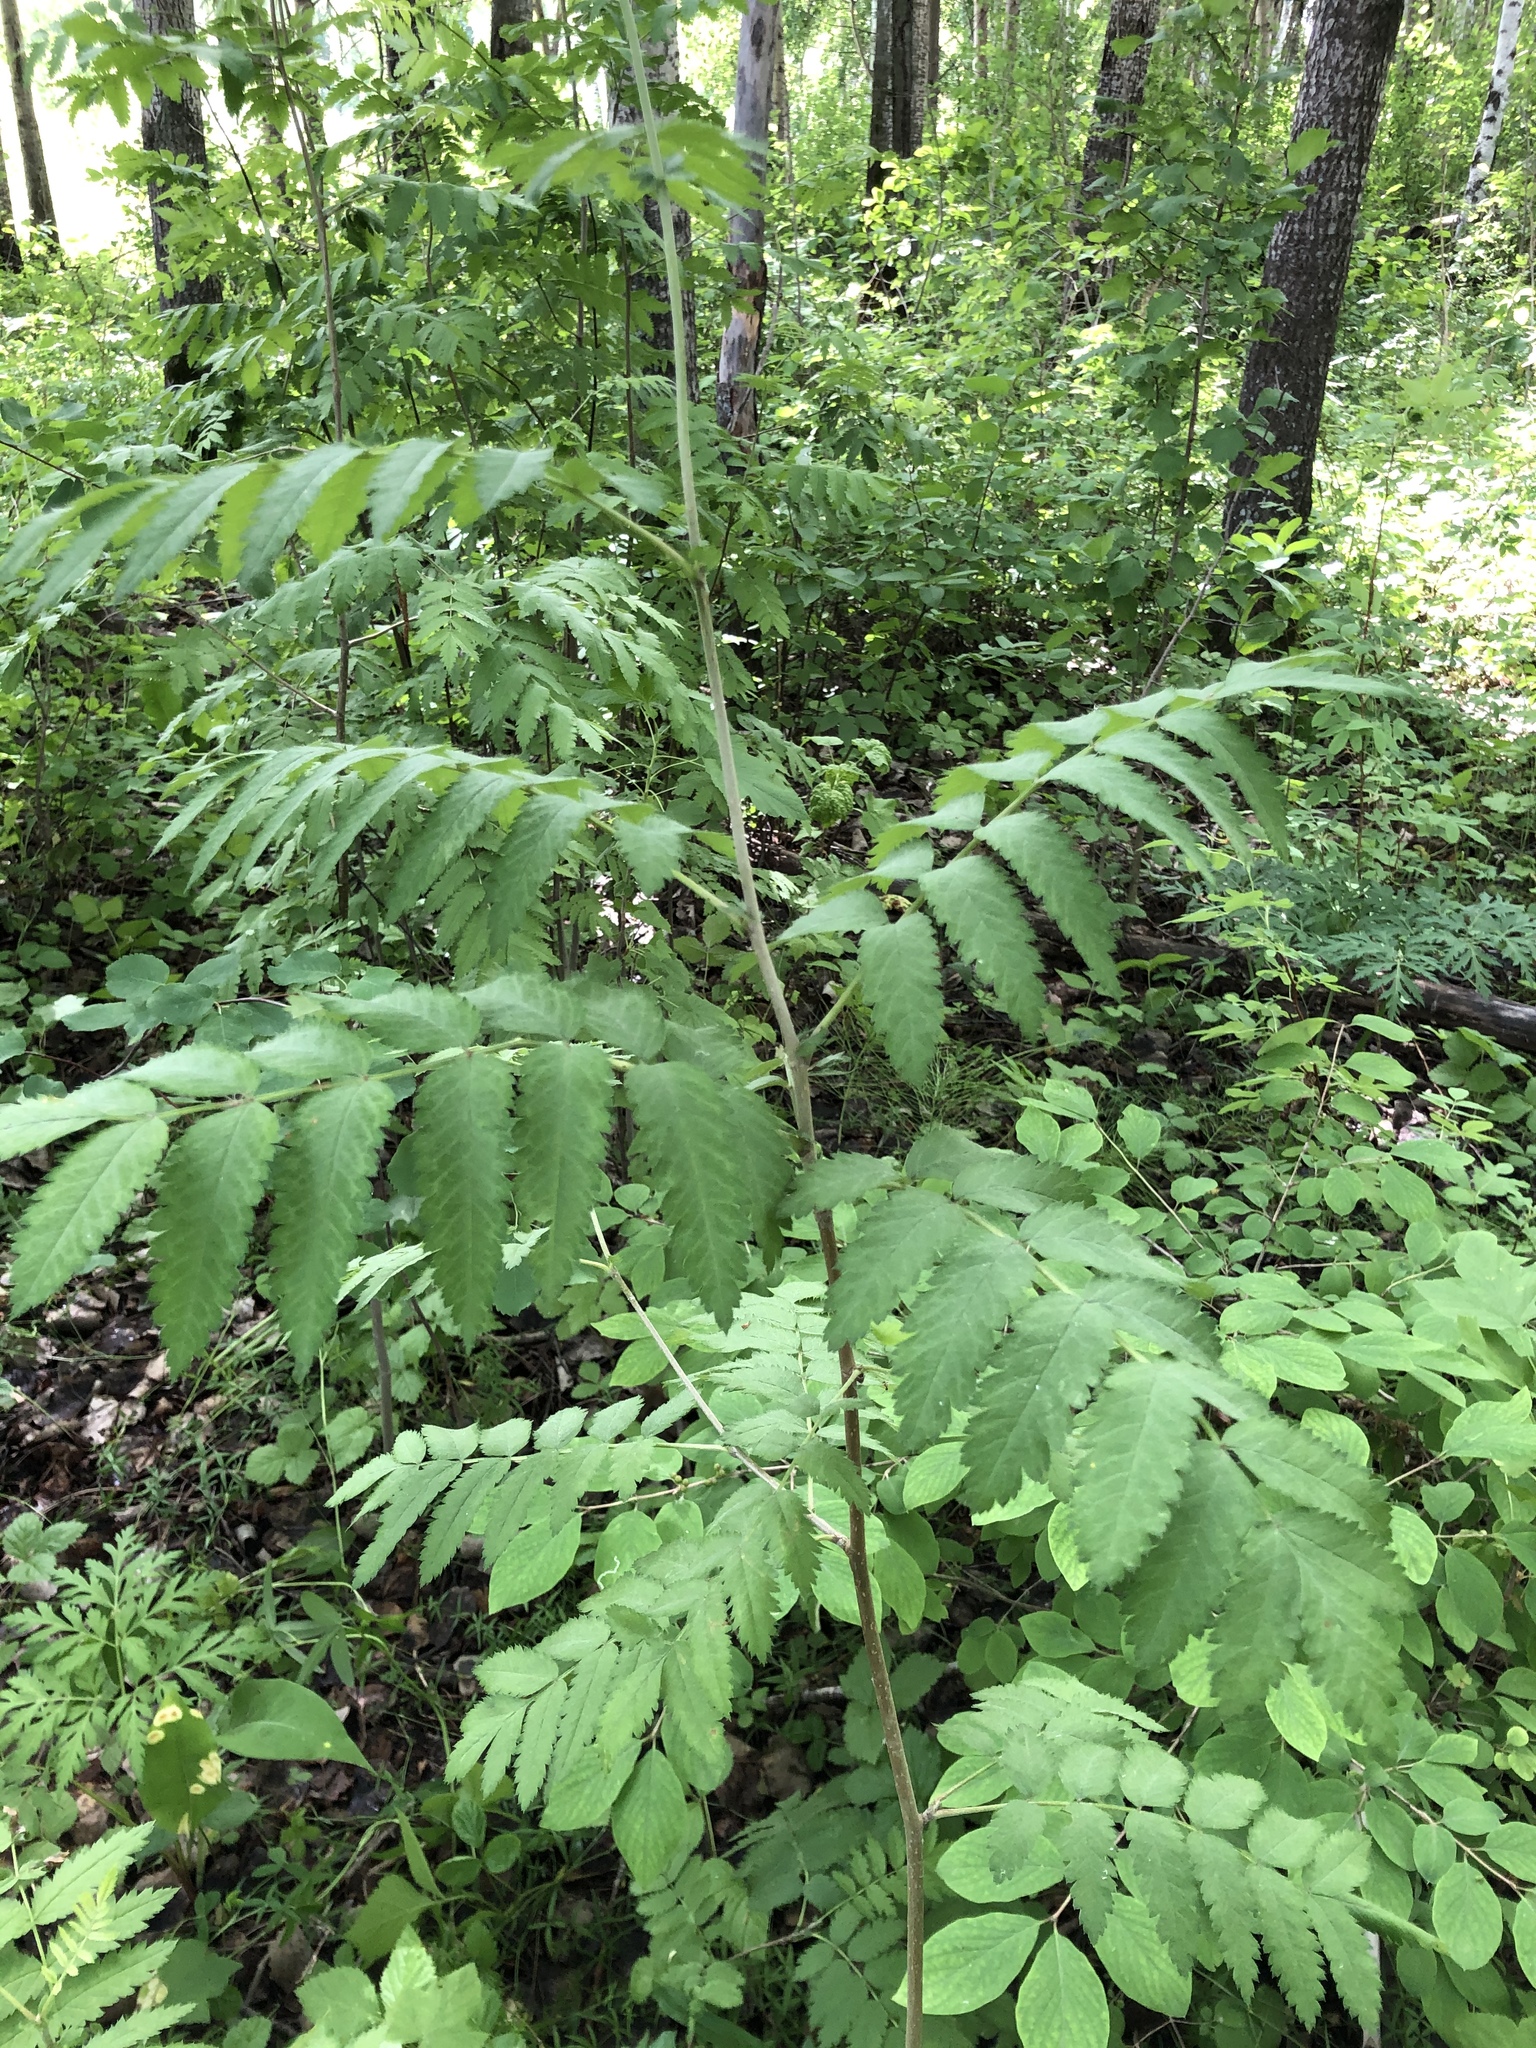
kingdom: Plantae
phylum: Tracheophyta
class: Magnoliopsida
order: Rosales
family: Rosaceae
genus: Sorbus
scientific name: Sorbus aucuparia
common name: Rowan
